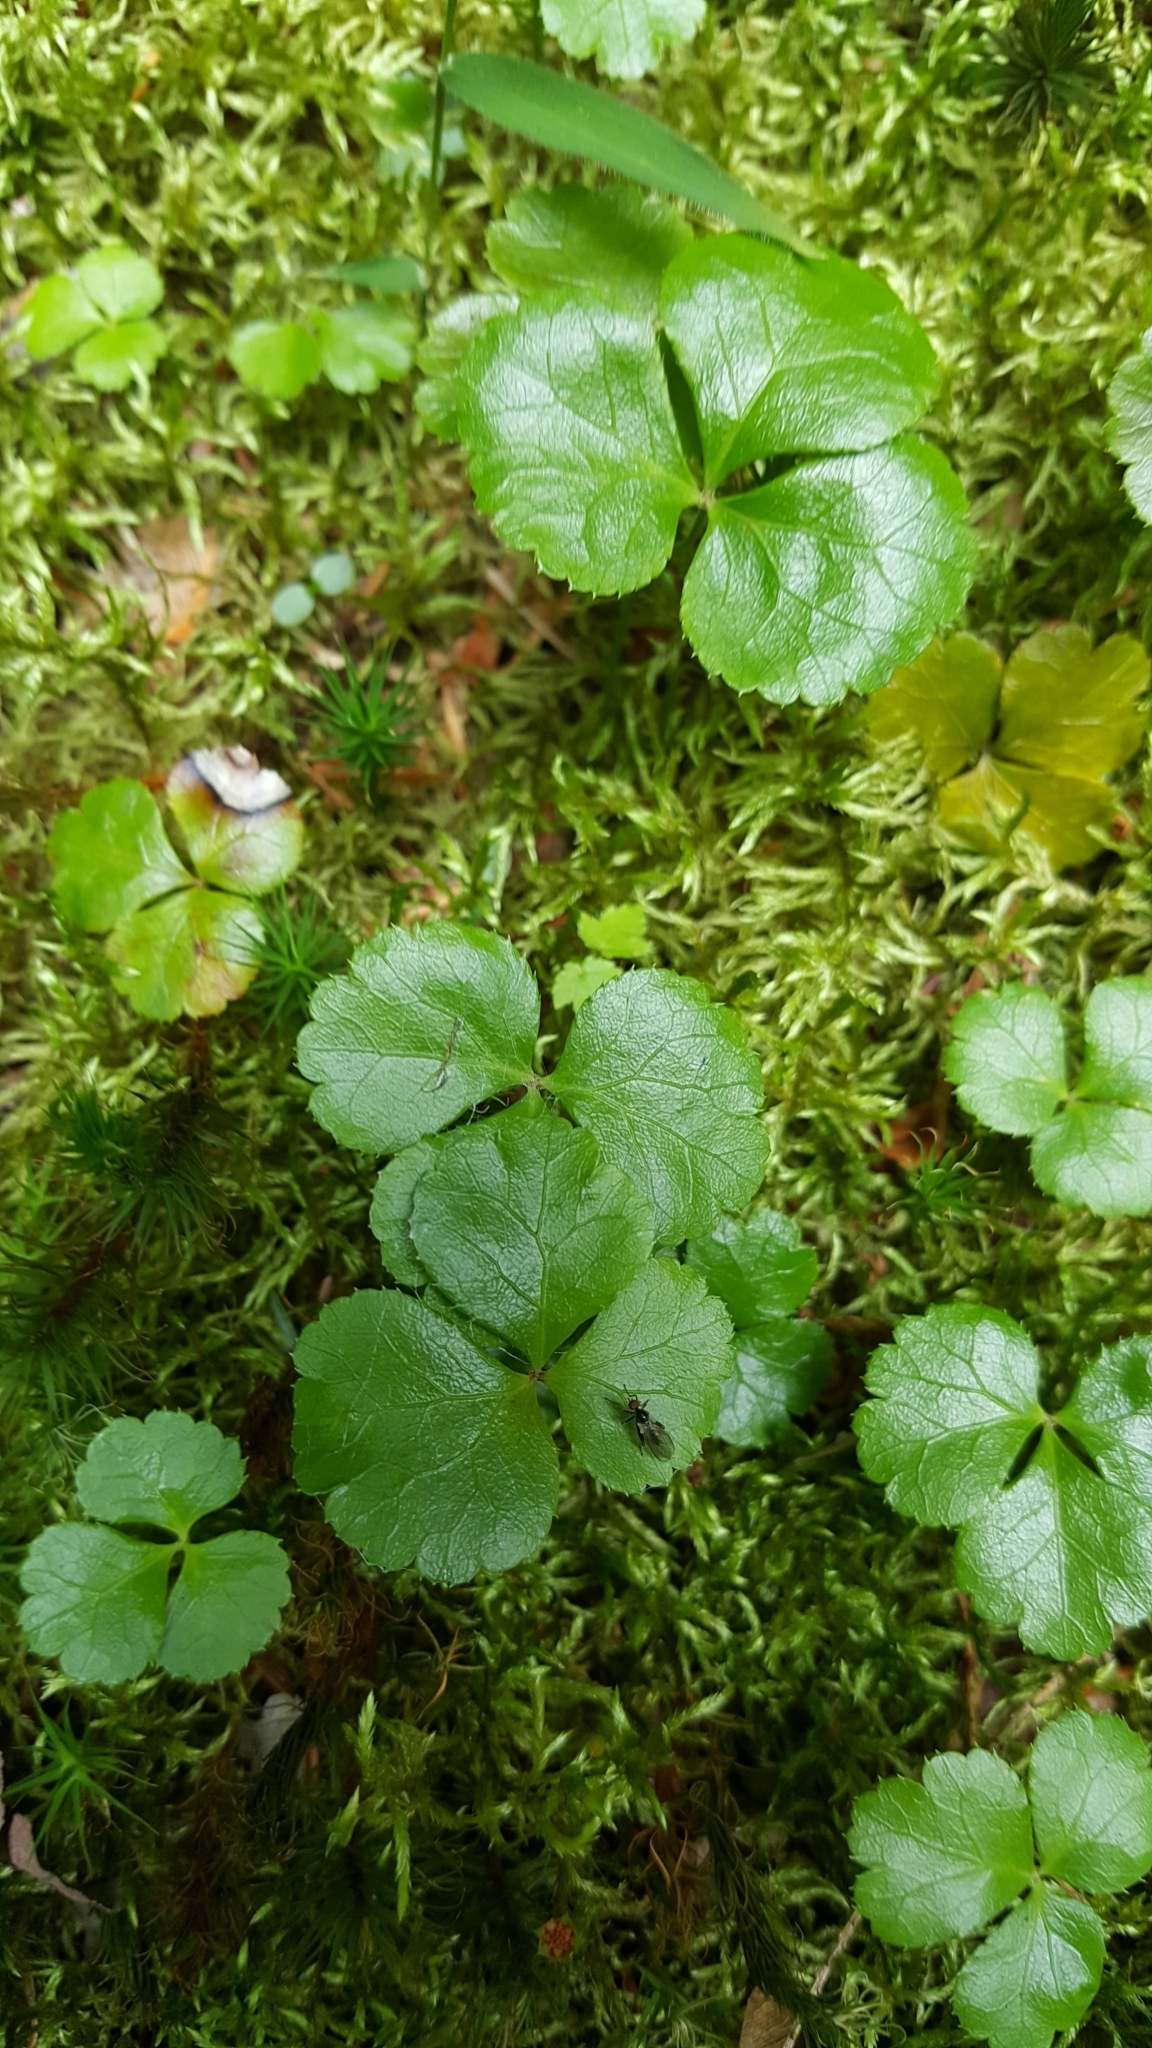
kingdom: Plantae
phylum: Tracheophyta
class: Magnoliopsida
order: Ranunculales
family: Ranunculaceae
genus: Coptis
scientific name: Coptis trifolia
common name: Canker-root
